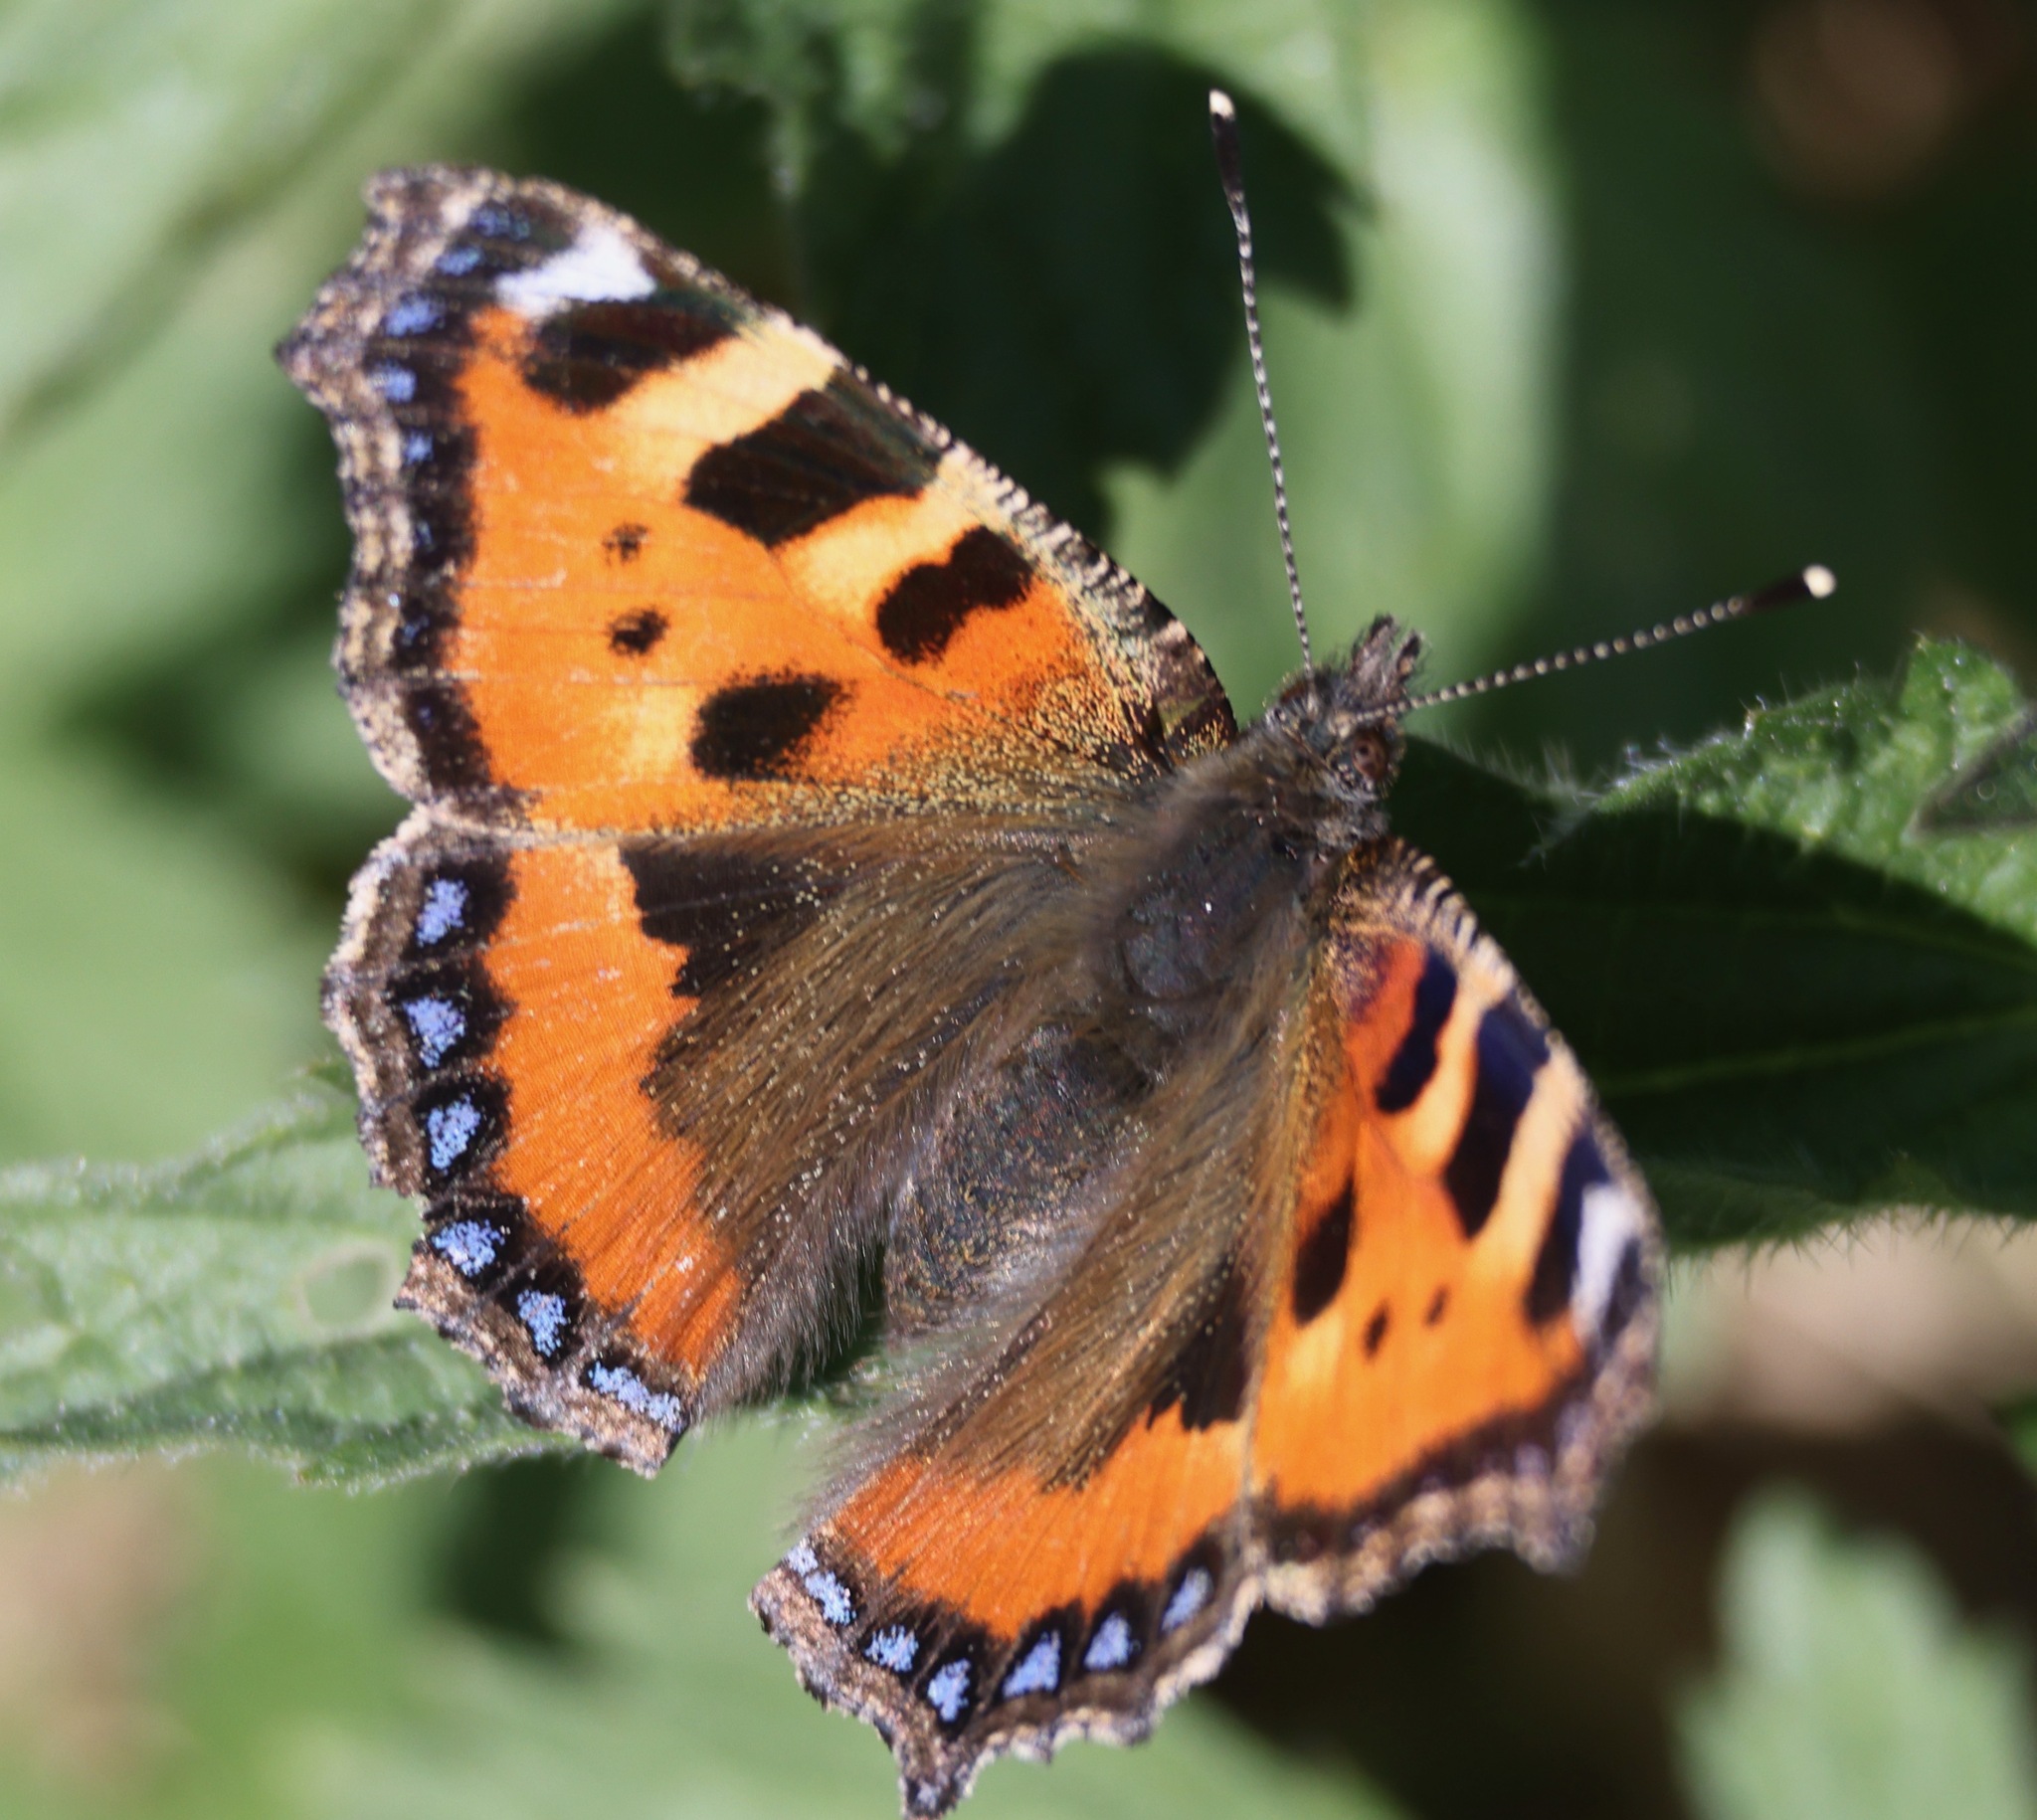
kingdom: Animalia
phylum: Arthropoda
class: Insecta
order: Lepidoptera
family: Nymphalidae
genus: Aglais
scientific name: Aglais urticae
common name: Small tortoiseshell
